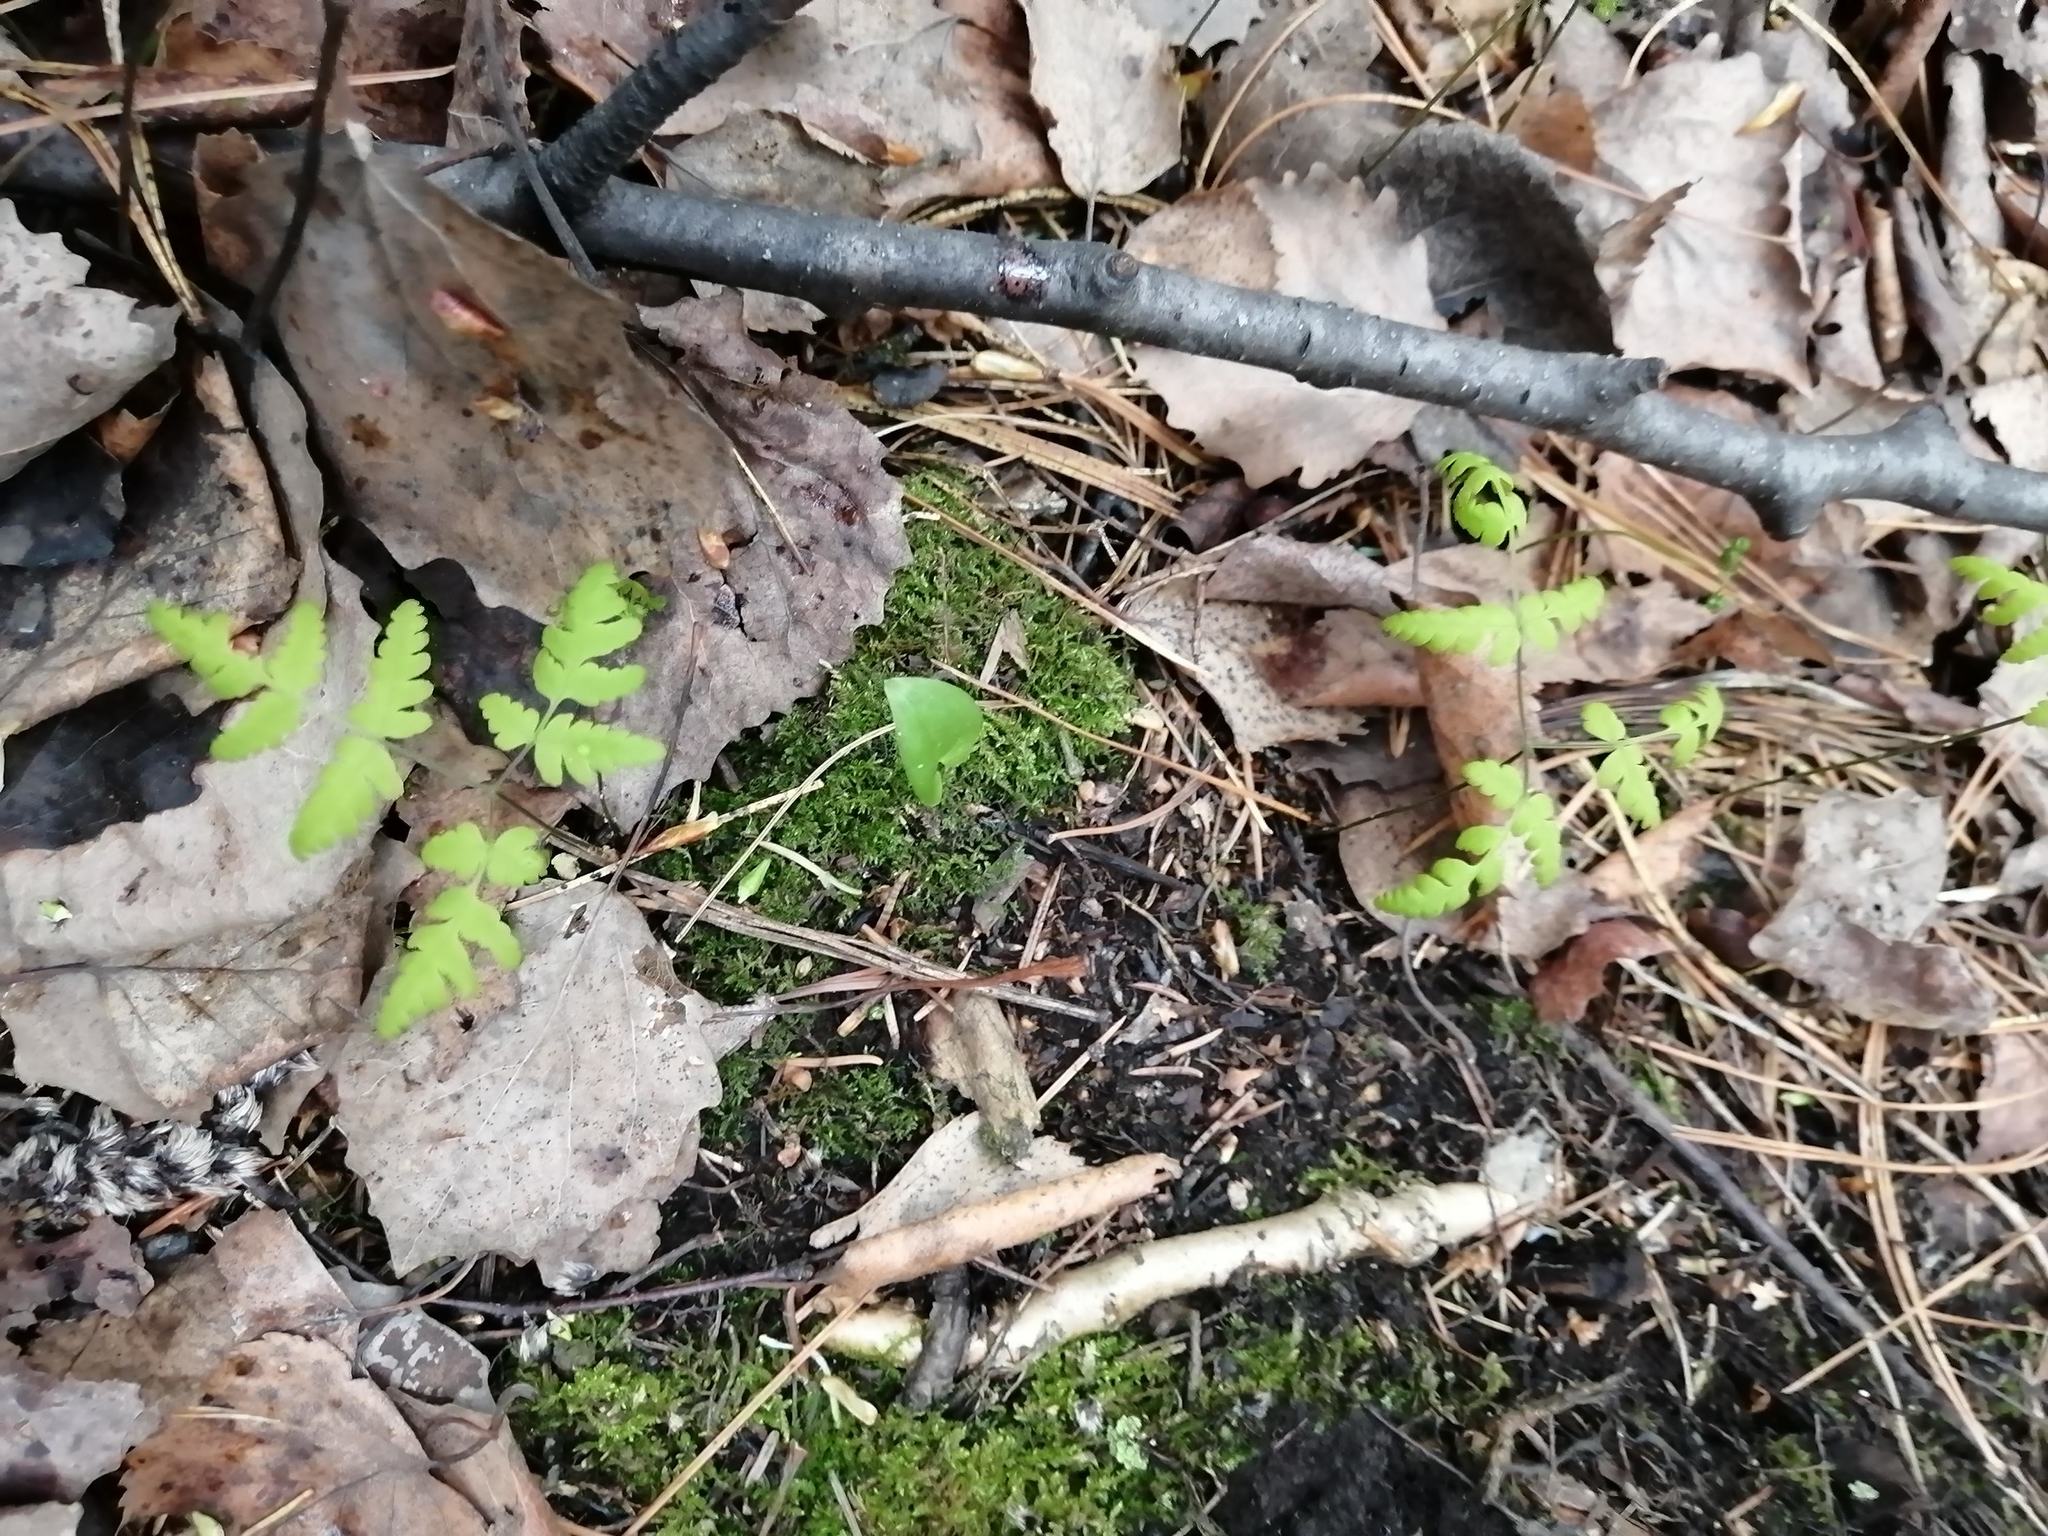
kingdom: Plantae
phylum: Tracheophyta
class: Polypodiopsida
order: Polypodiales
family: Cystopteridaceae
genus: Gymnocarpium
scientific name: Gymnocarpium dryopteris
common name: Oak fern
